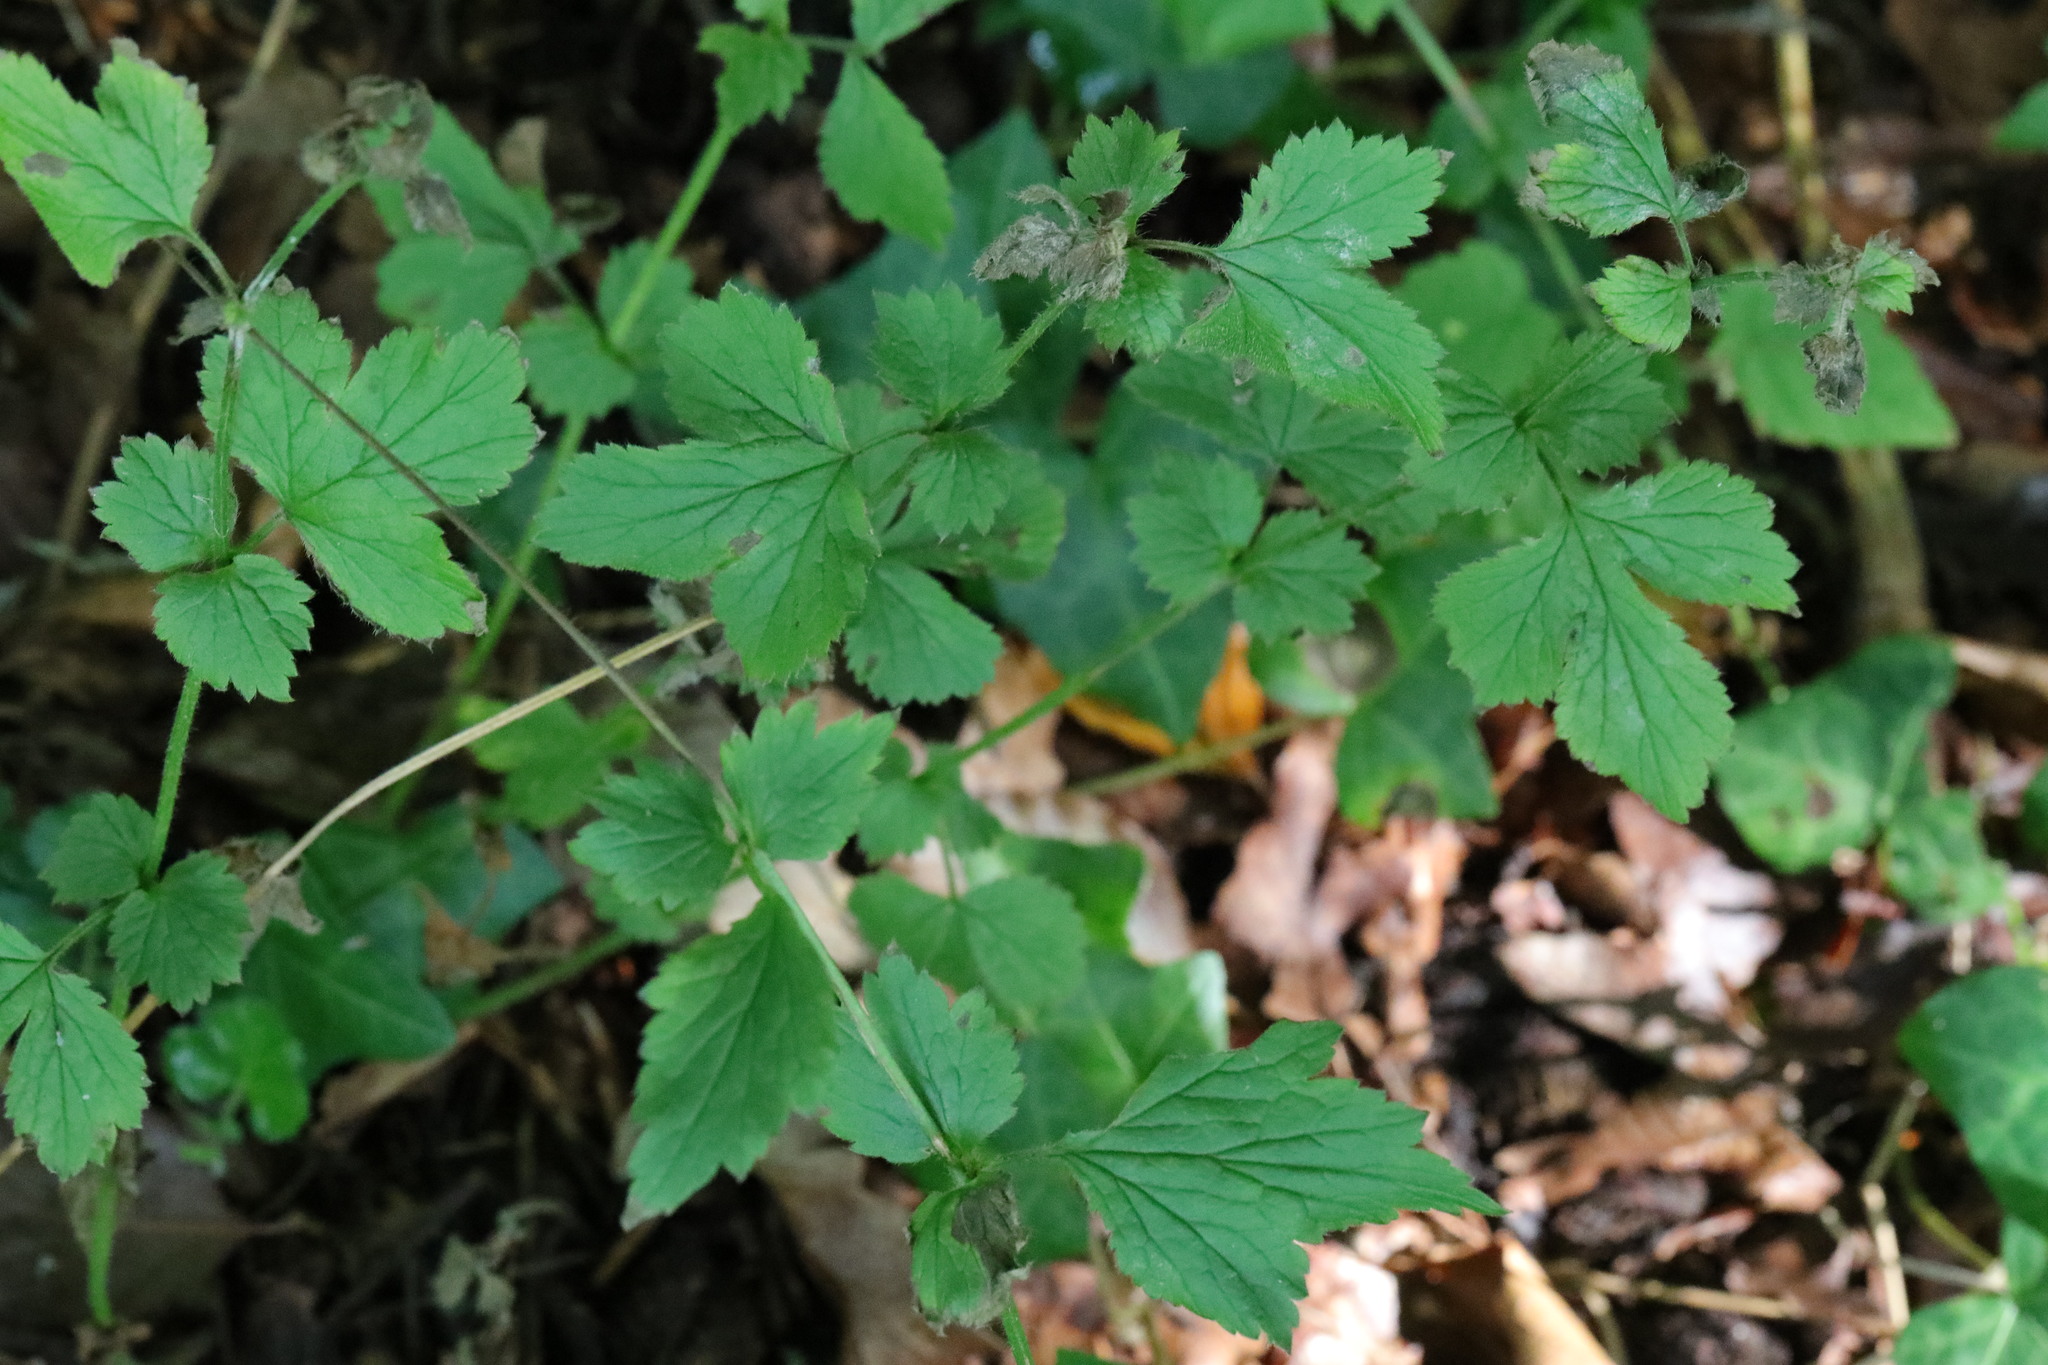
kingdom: Plantae
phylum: Tracheophyta
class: Magnoliopsida
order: Rosales
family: Rosaceae
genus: Geum
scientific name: Geum urbanum
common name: Wood avens
